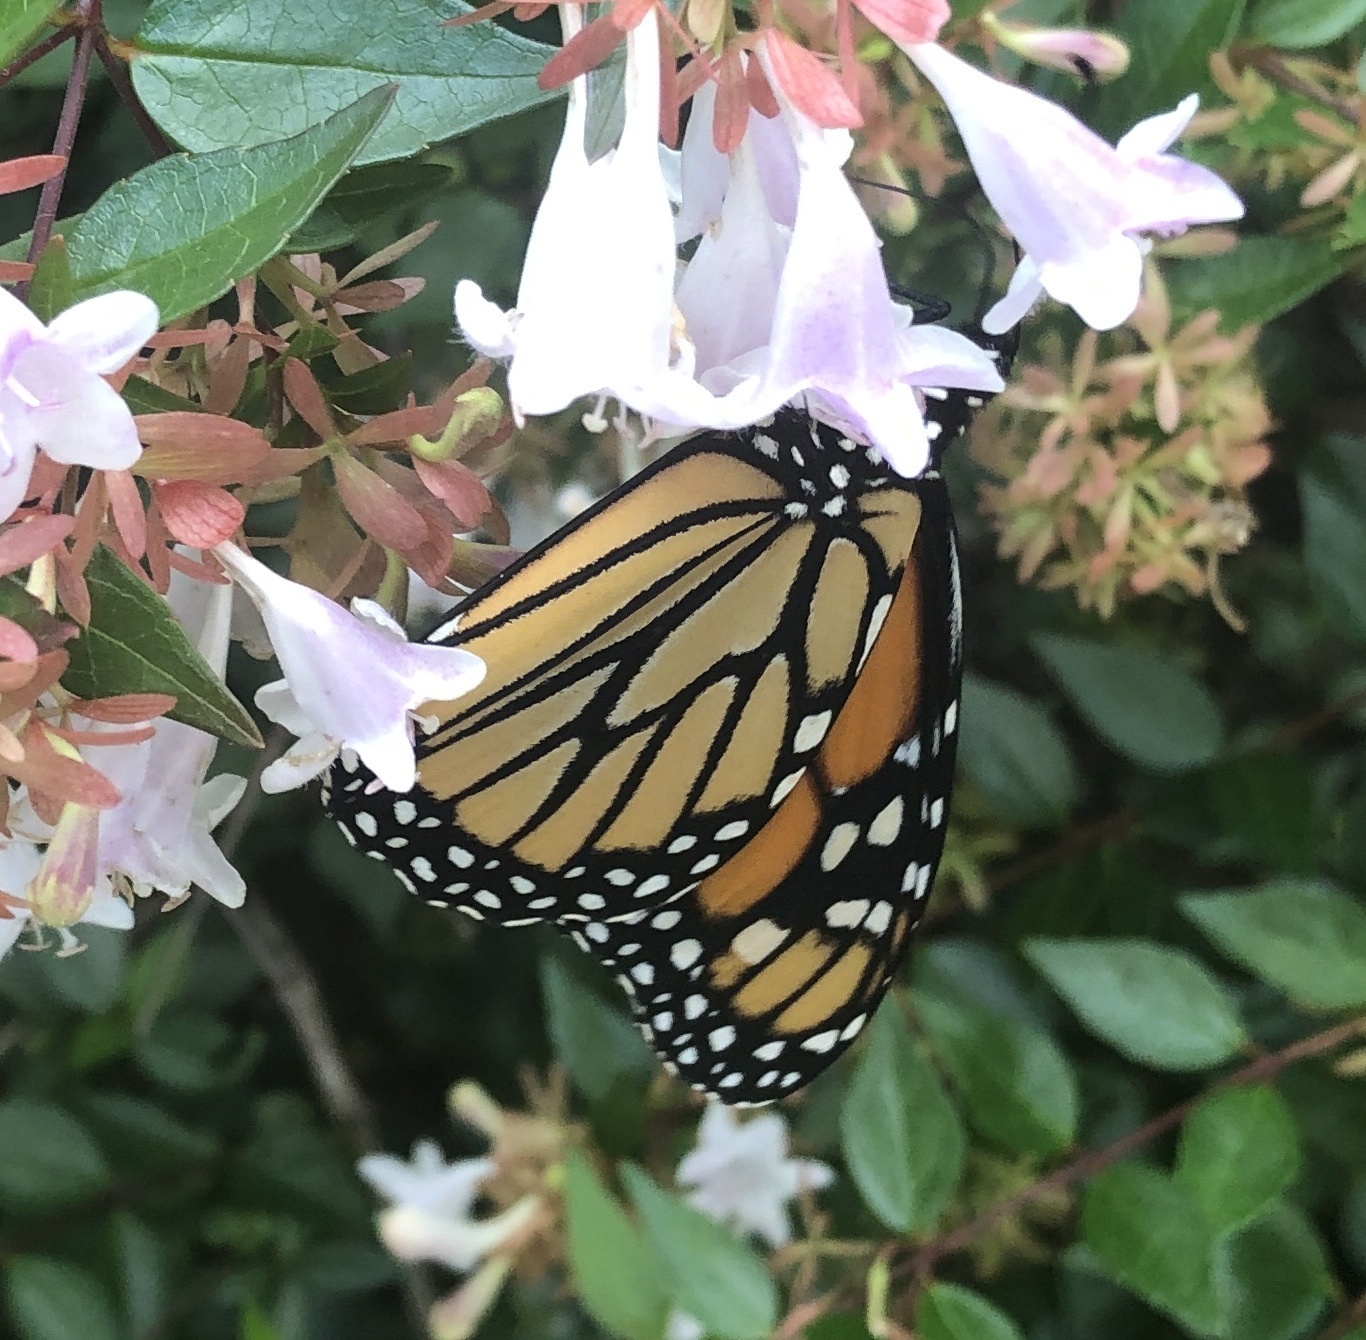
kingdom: Animalia
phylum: Arthropoda
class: Insecta
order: Lepidoptera
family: Nymphalidae
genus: Danaus
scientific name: Danaus plexippus
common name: Monarch
